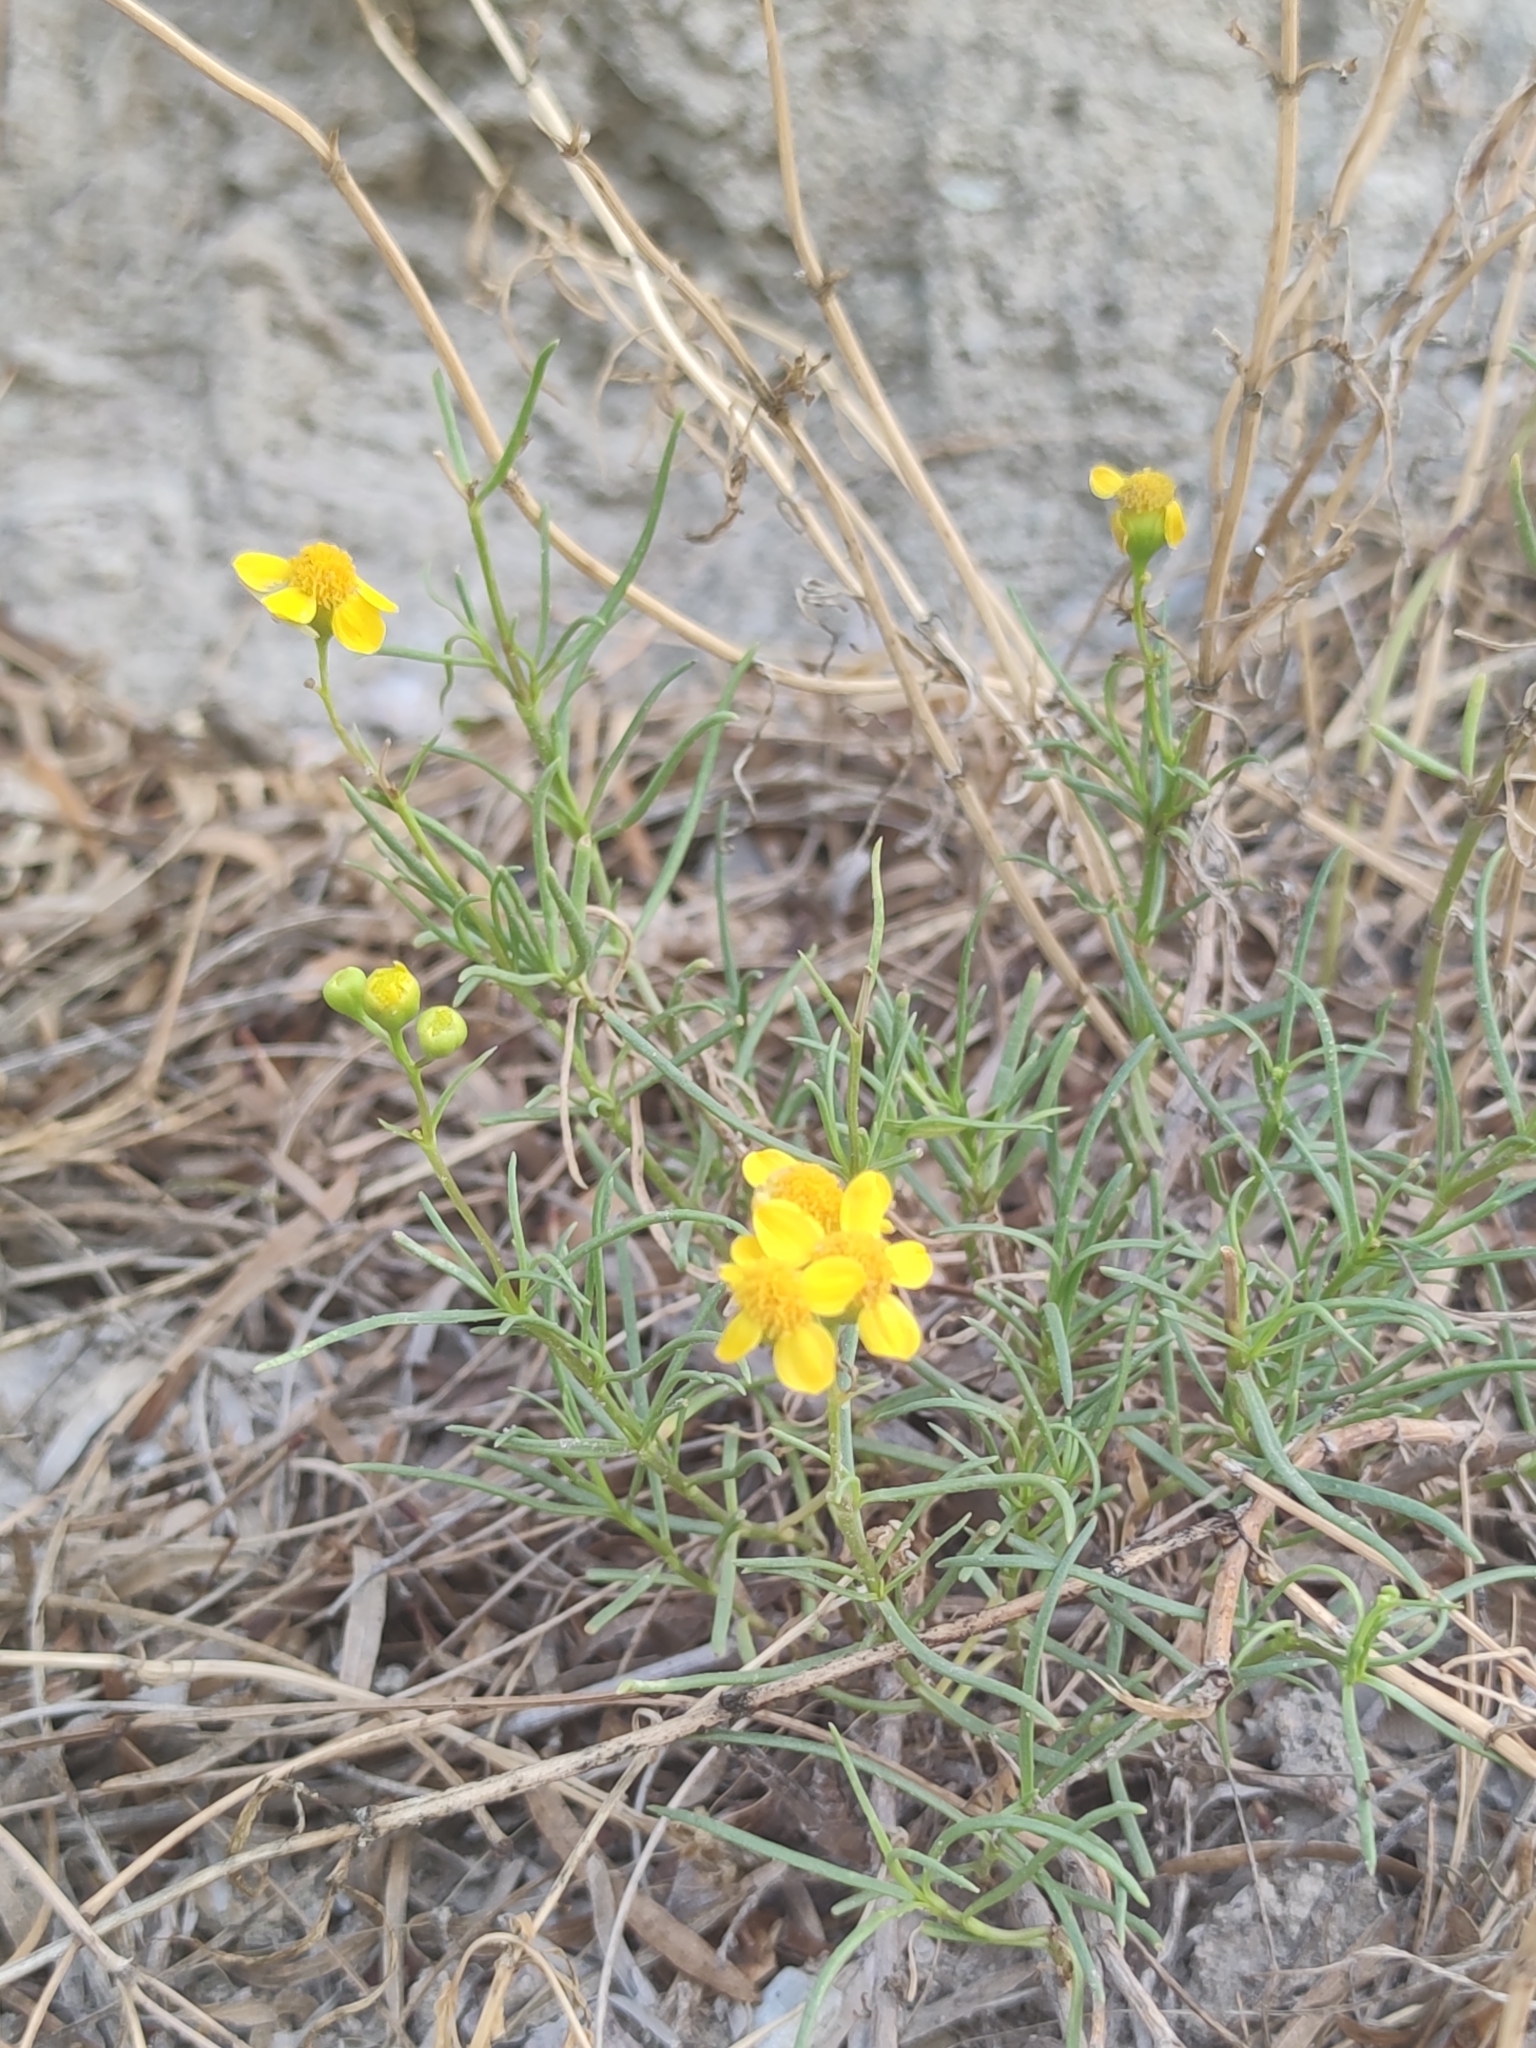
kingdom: Plantae
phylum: Tracheophyta
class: Magnoliopsida
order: Asterales
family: Asteraceae
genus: Haploesthes
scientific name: Haploesthes greggii
